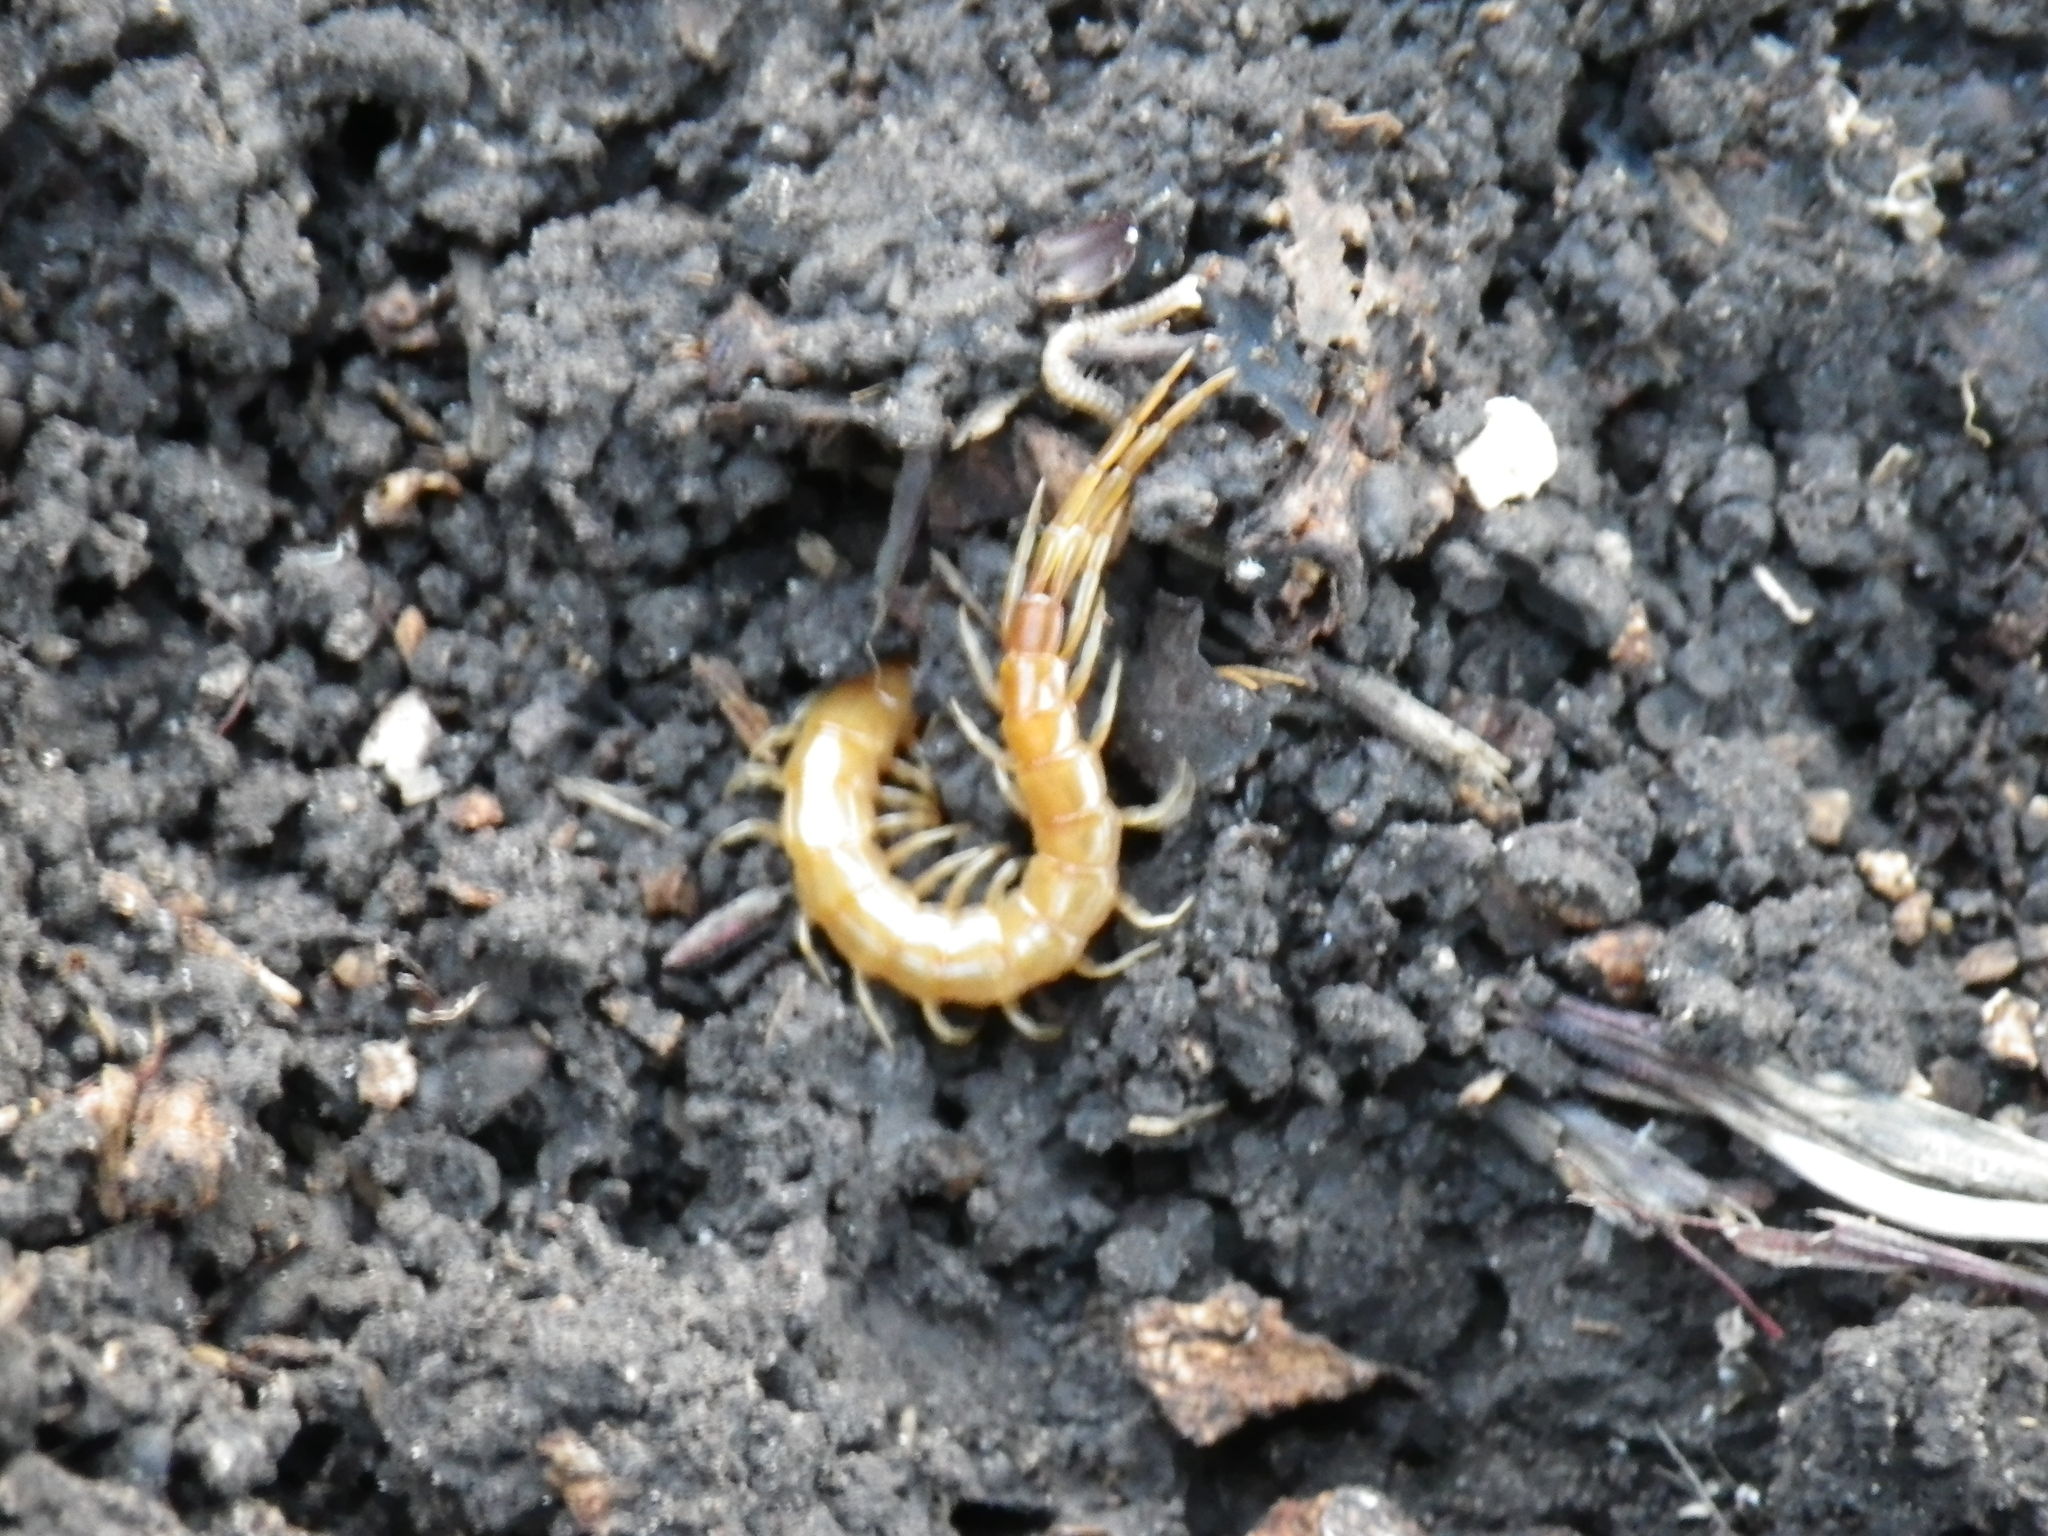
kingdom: Animalia
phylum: Arthropoda
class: Chilopoda
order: Scolopendromorpha
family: Scolopocryptopidae
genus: Scolopocryptops
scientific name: Scolopocryptops gracilis
